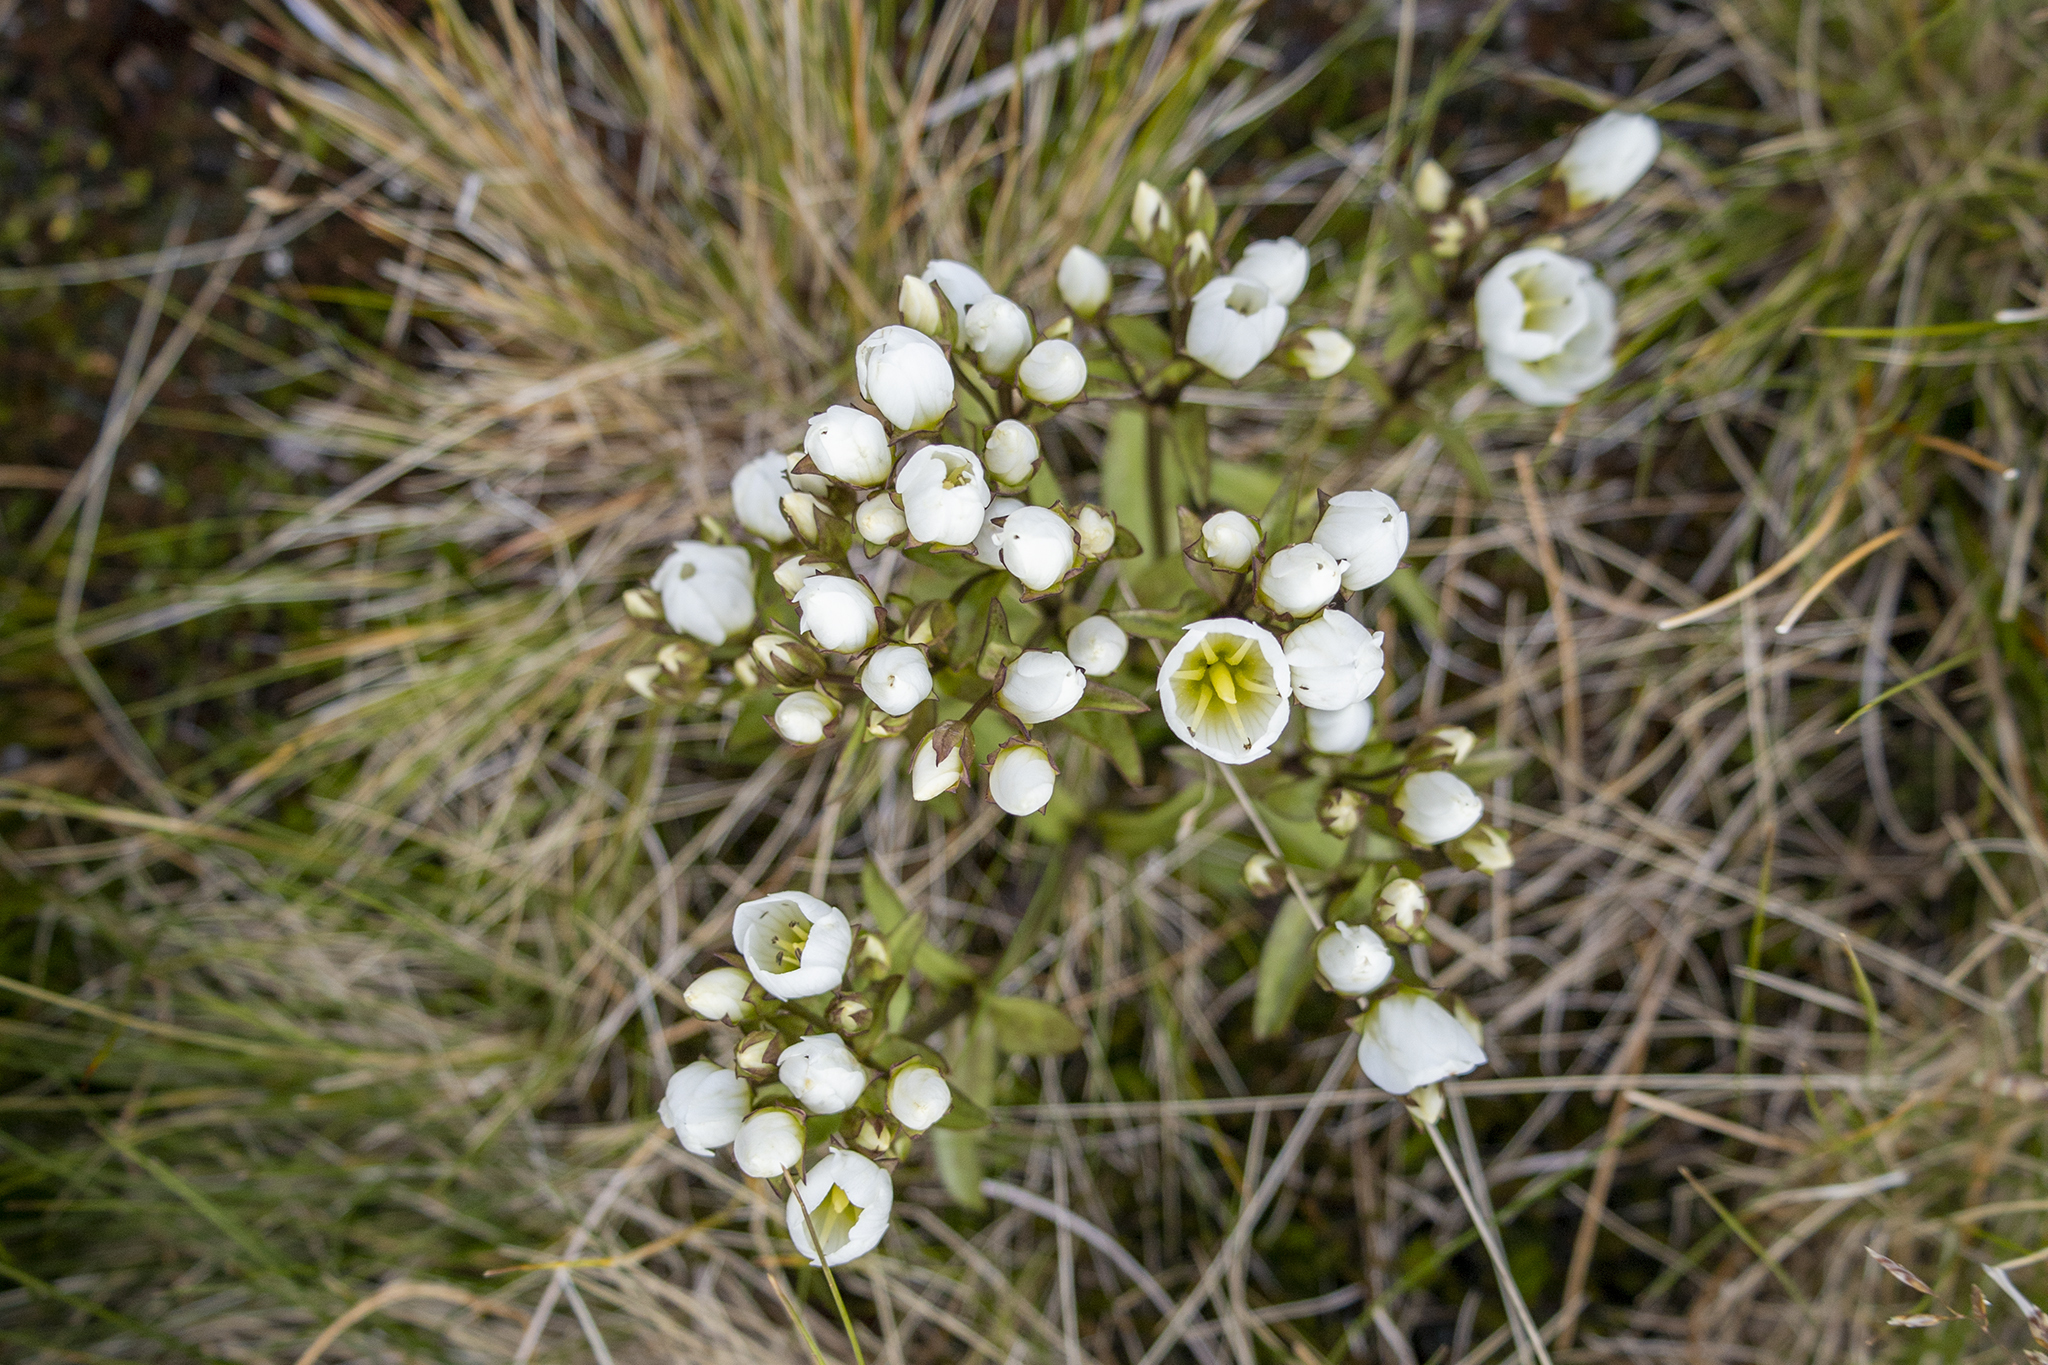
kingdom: Plantae
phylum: Tracheophyta
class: Magnoliopsida
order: Gentianales
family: Gentianaceae
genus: Gentianella
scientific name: Gentianella corymbifera
